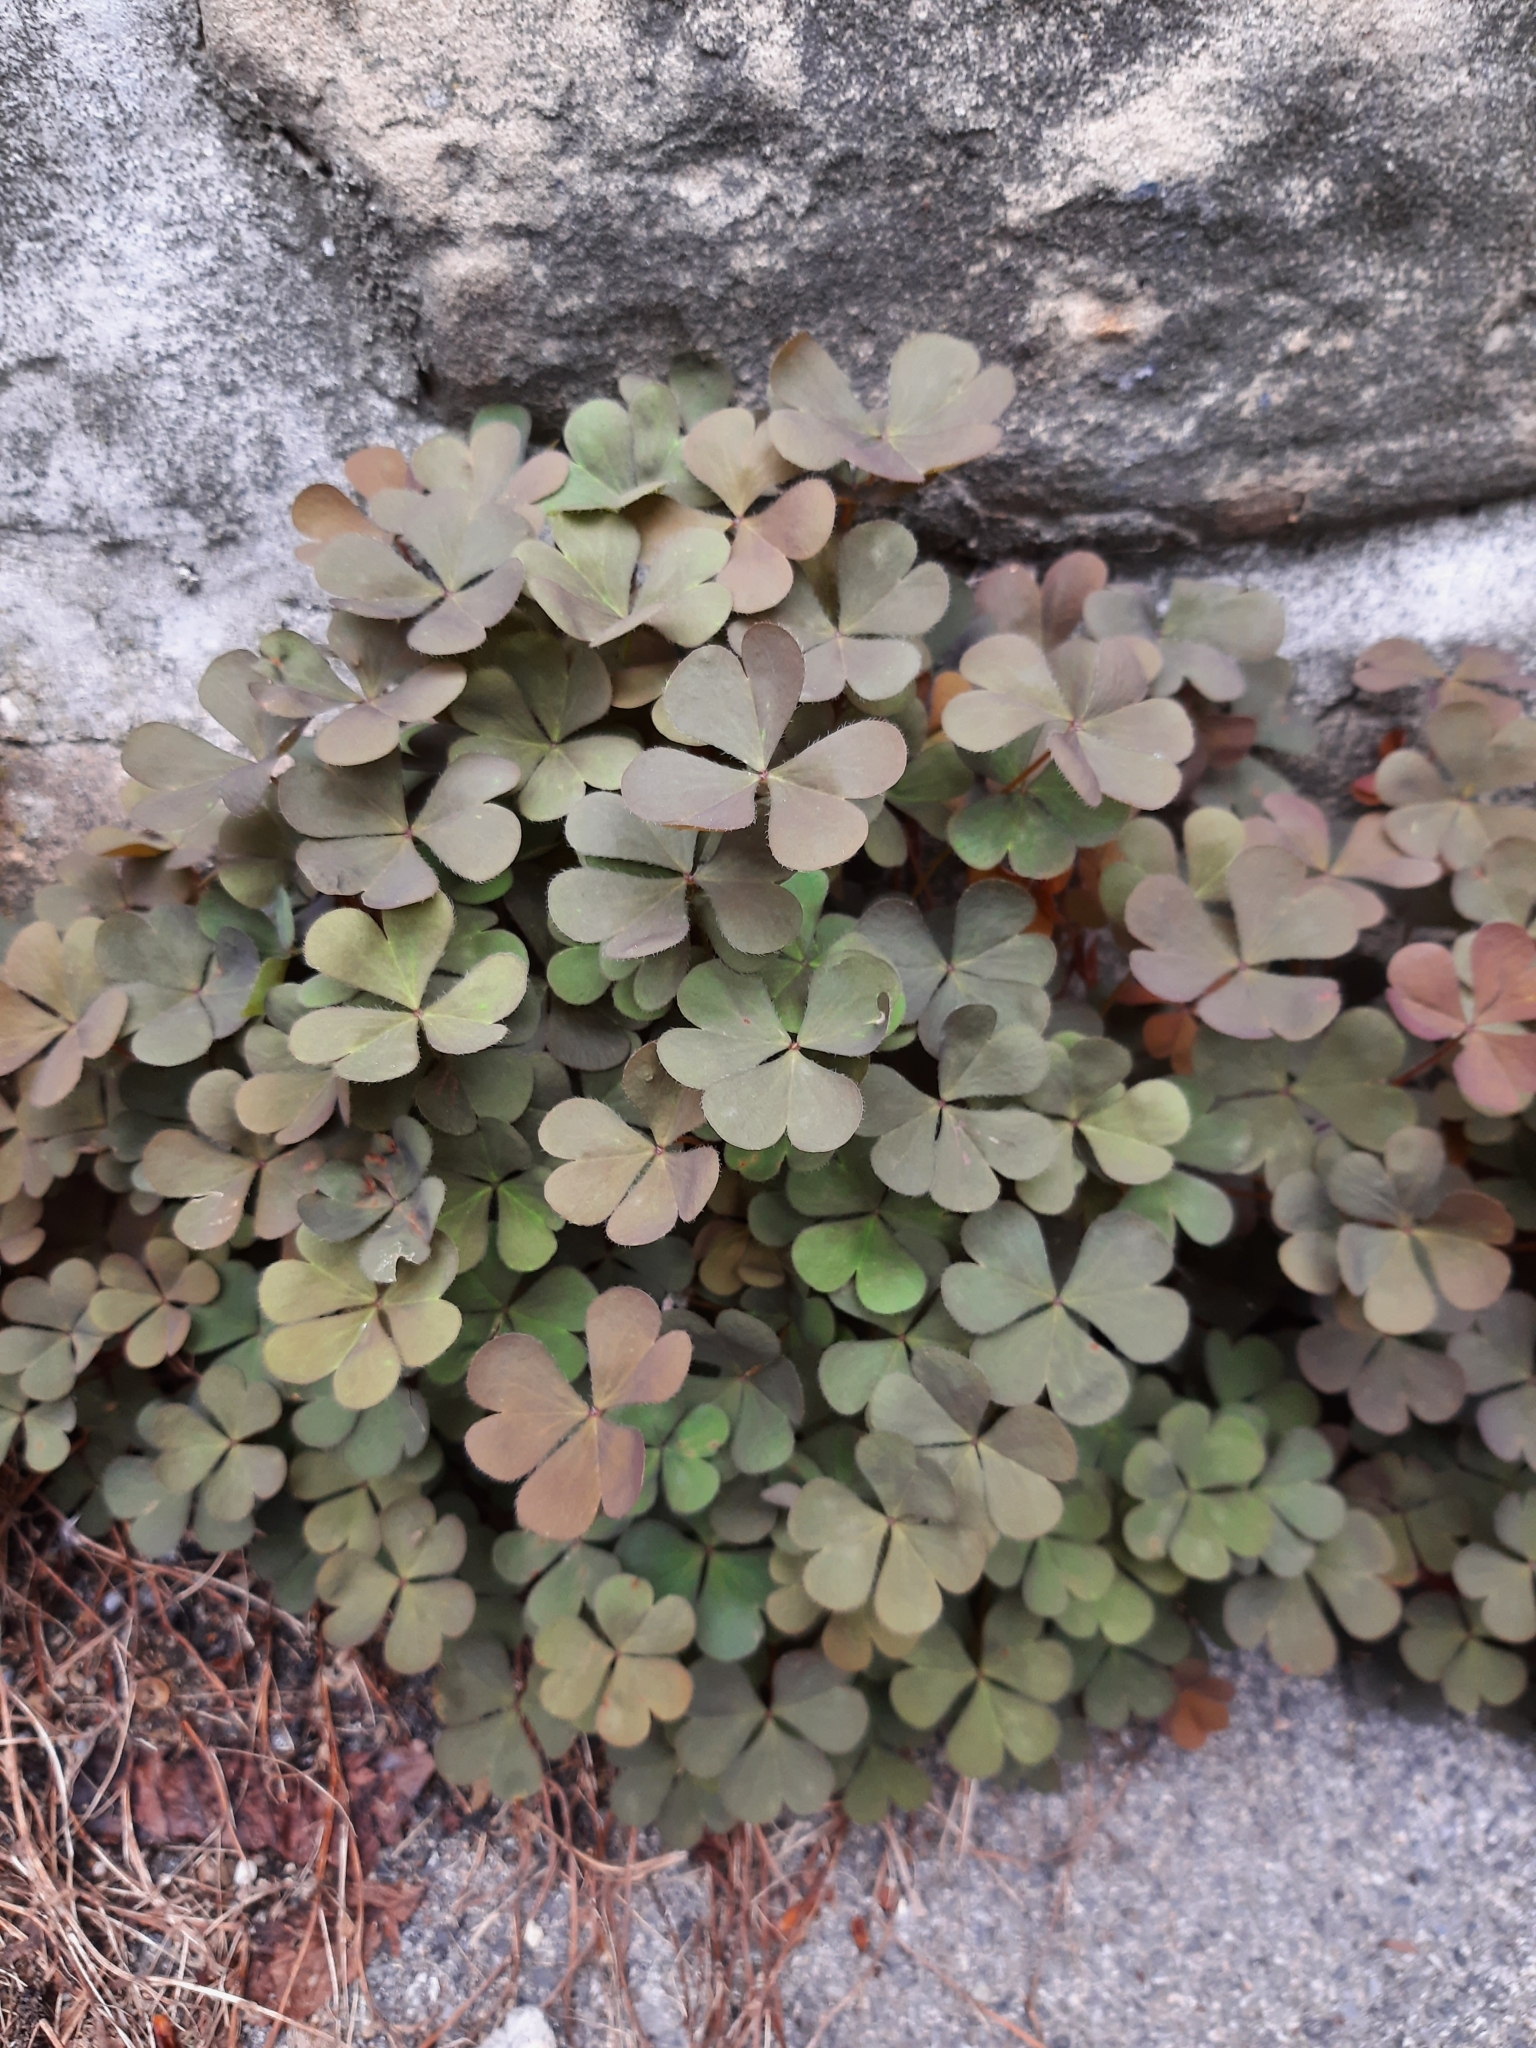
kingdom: Plantae
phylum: Tracheophyta
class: Magnoliopsida
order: Oxalidales
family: Oxalidaceae
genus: Oxalis
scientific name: Oxalis corniculata
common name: Procumbent yellow-sorrel
